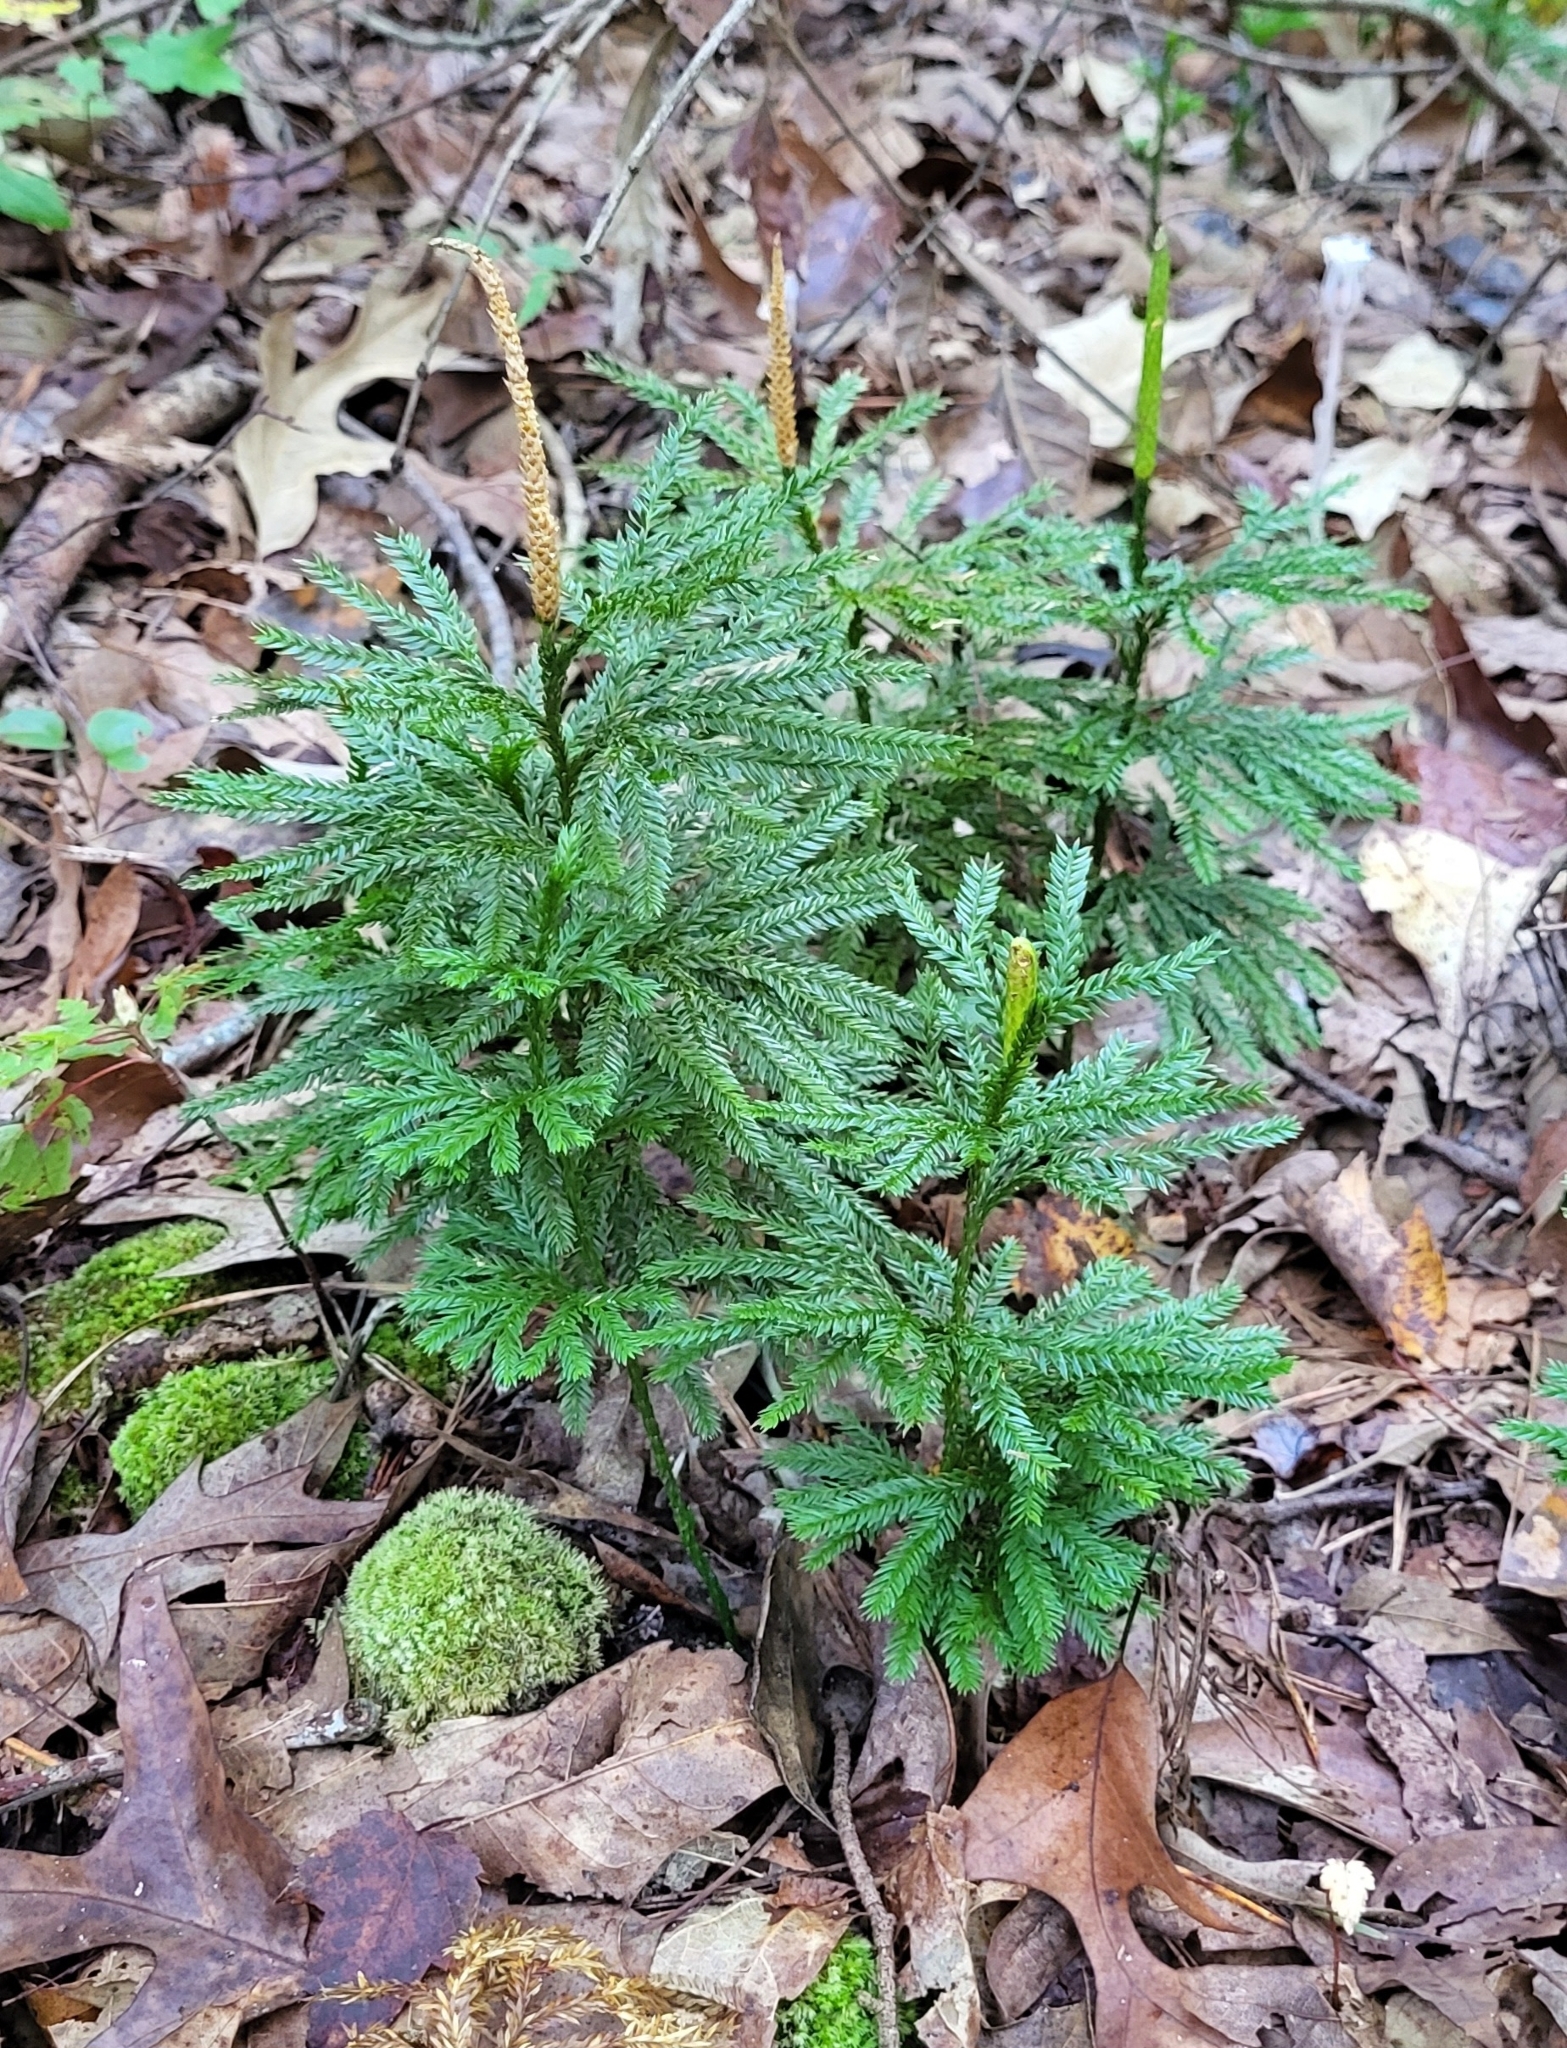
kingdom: Plantae
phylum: Tracheophyta
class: Lycopodiopsida
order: Lycopodiales
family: Lycopodiaceae
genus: Dendrolycopodium
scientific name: Dendrolycopodium obscurum
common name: Common ground-pine
